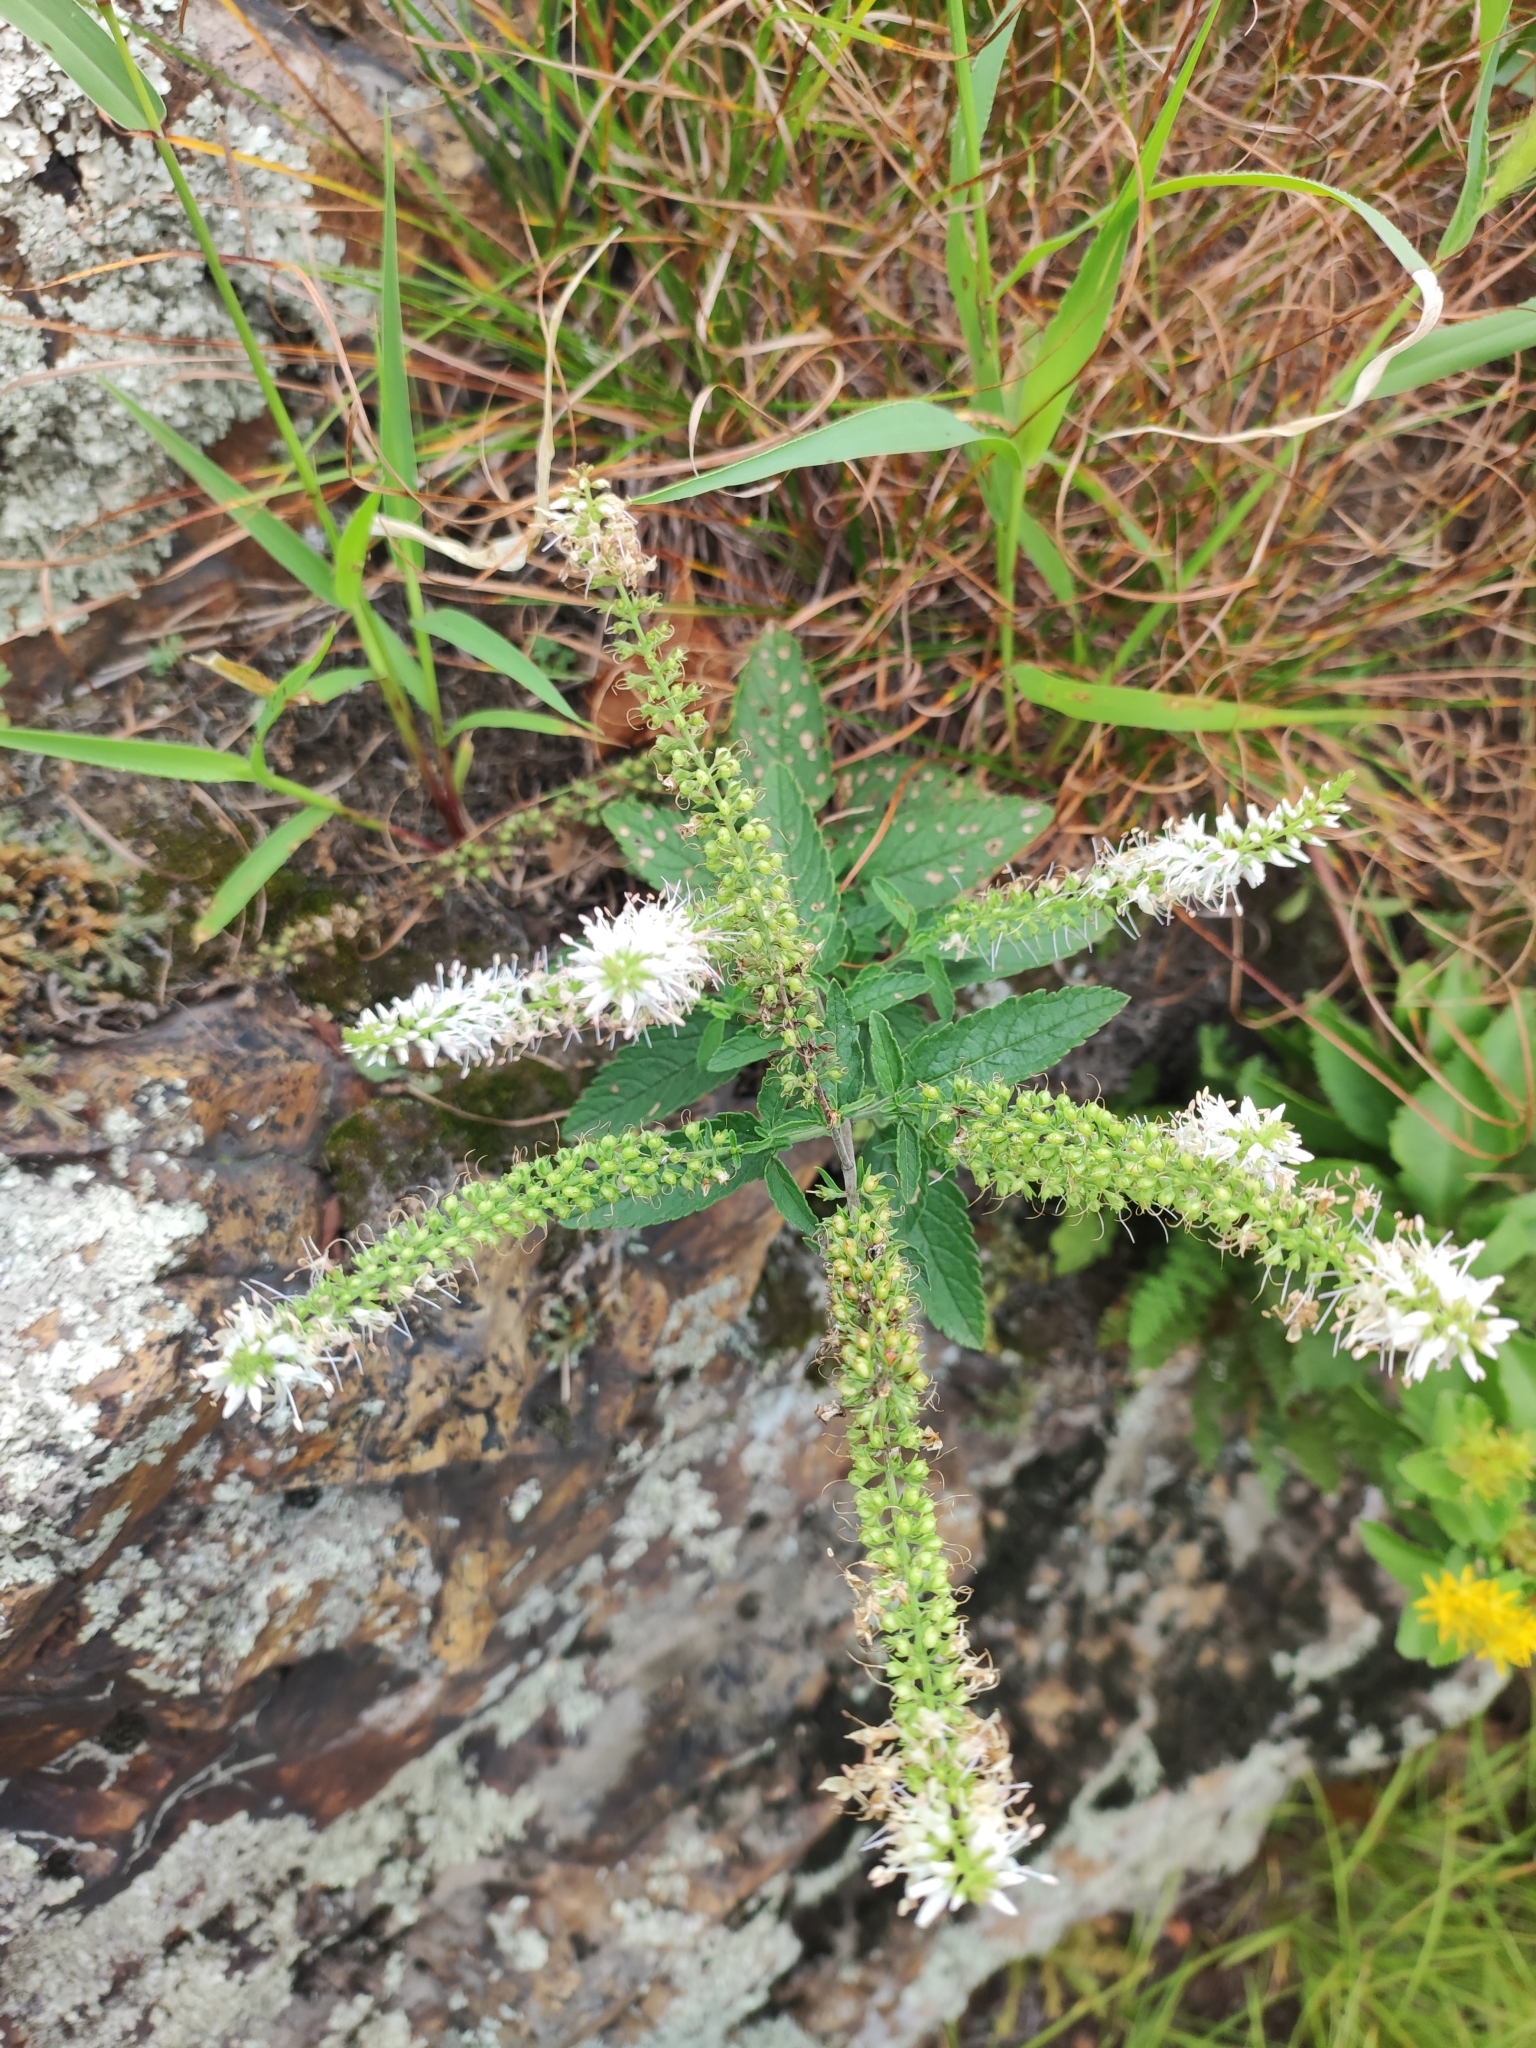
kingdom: Plantae
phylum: Tracheophyta
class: Magnoliopsida
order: Lamiales
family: Plantaginaceae
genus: Veronica
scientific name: Veronica daurica
